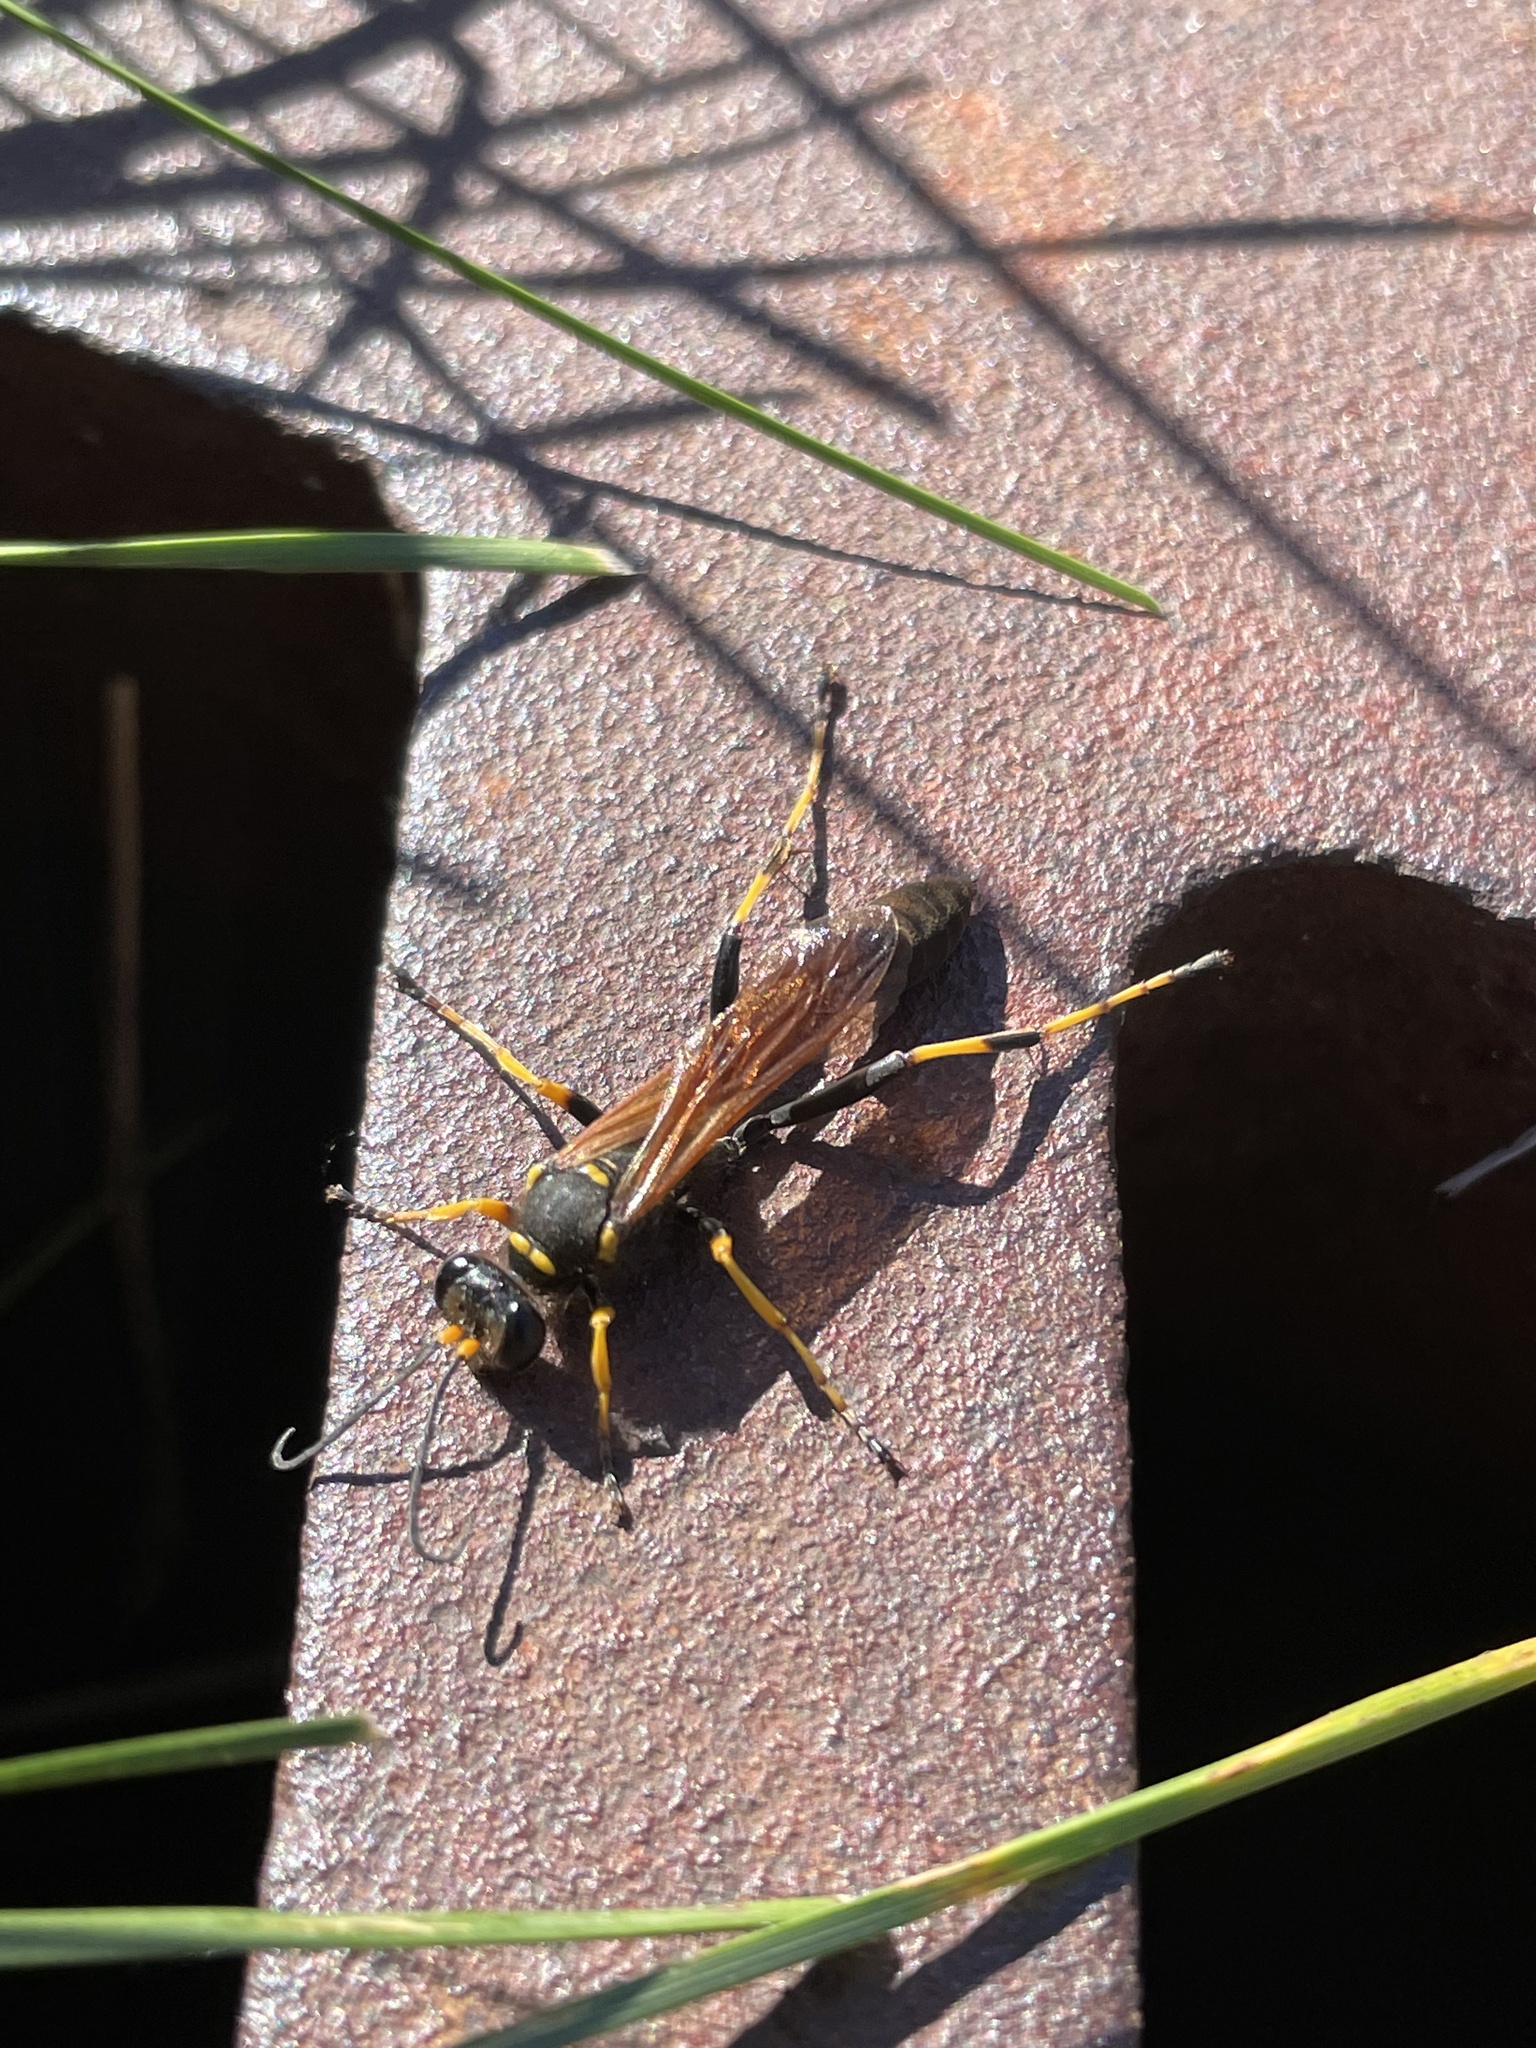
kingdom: Animalia
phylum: Arthropoda
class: Insecta
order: Hymenoptera
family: Sphecidae
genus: Sceliphron
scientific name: Sceliphron caementarium
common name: Mud dauber
